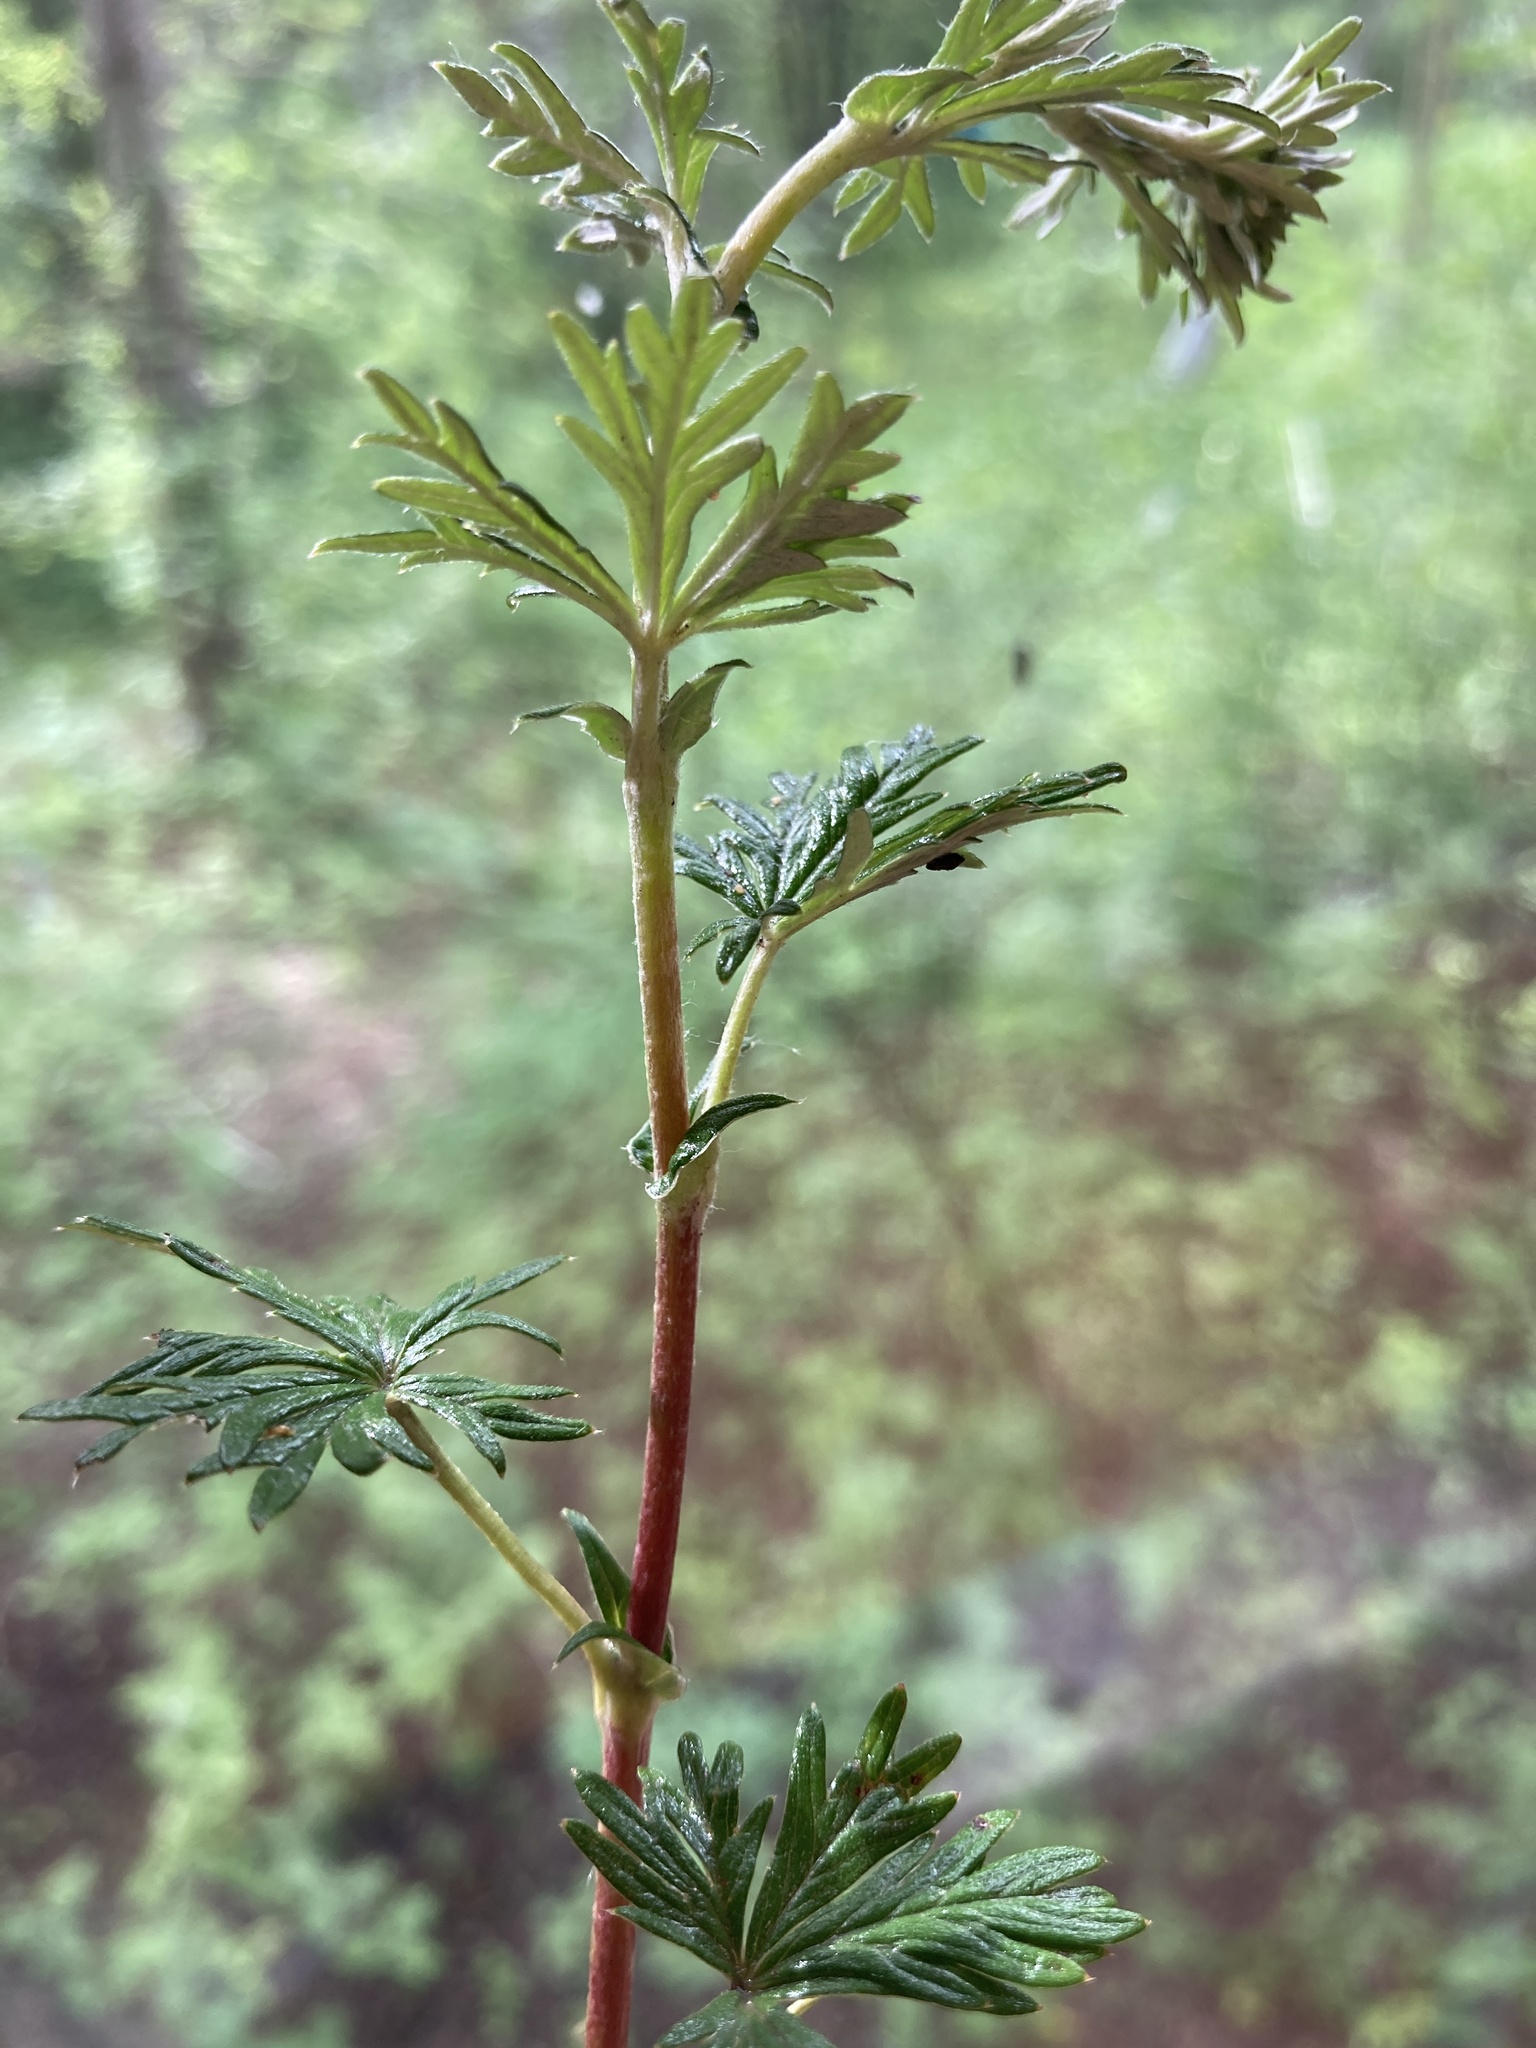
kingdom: Plantae
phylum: Tracheophyta
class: Magnoliopsida
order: Rosales
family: Rosaceae
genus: Potentilla
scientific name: Potentilla argentea
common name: Hoary cinquefoil
